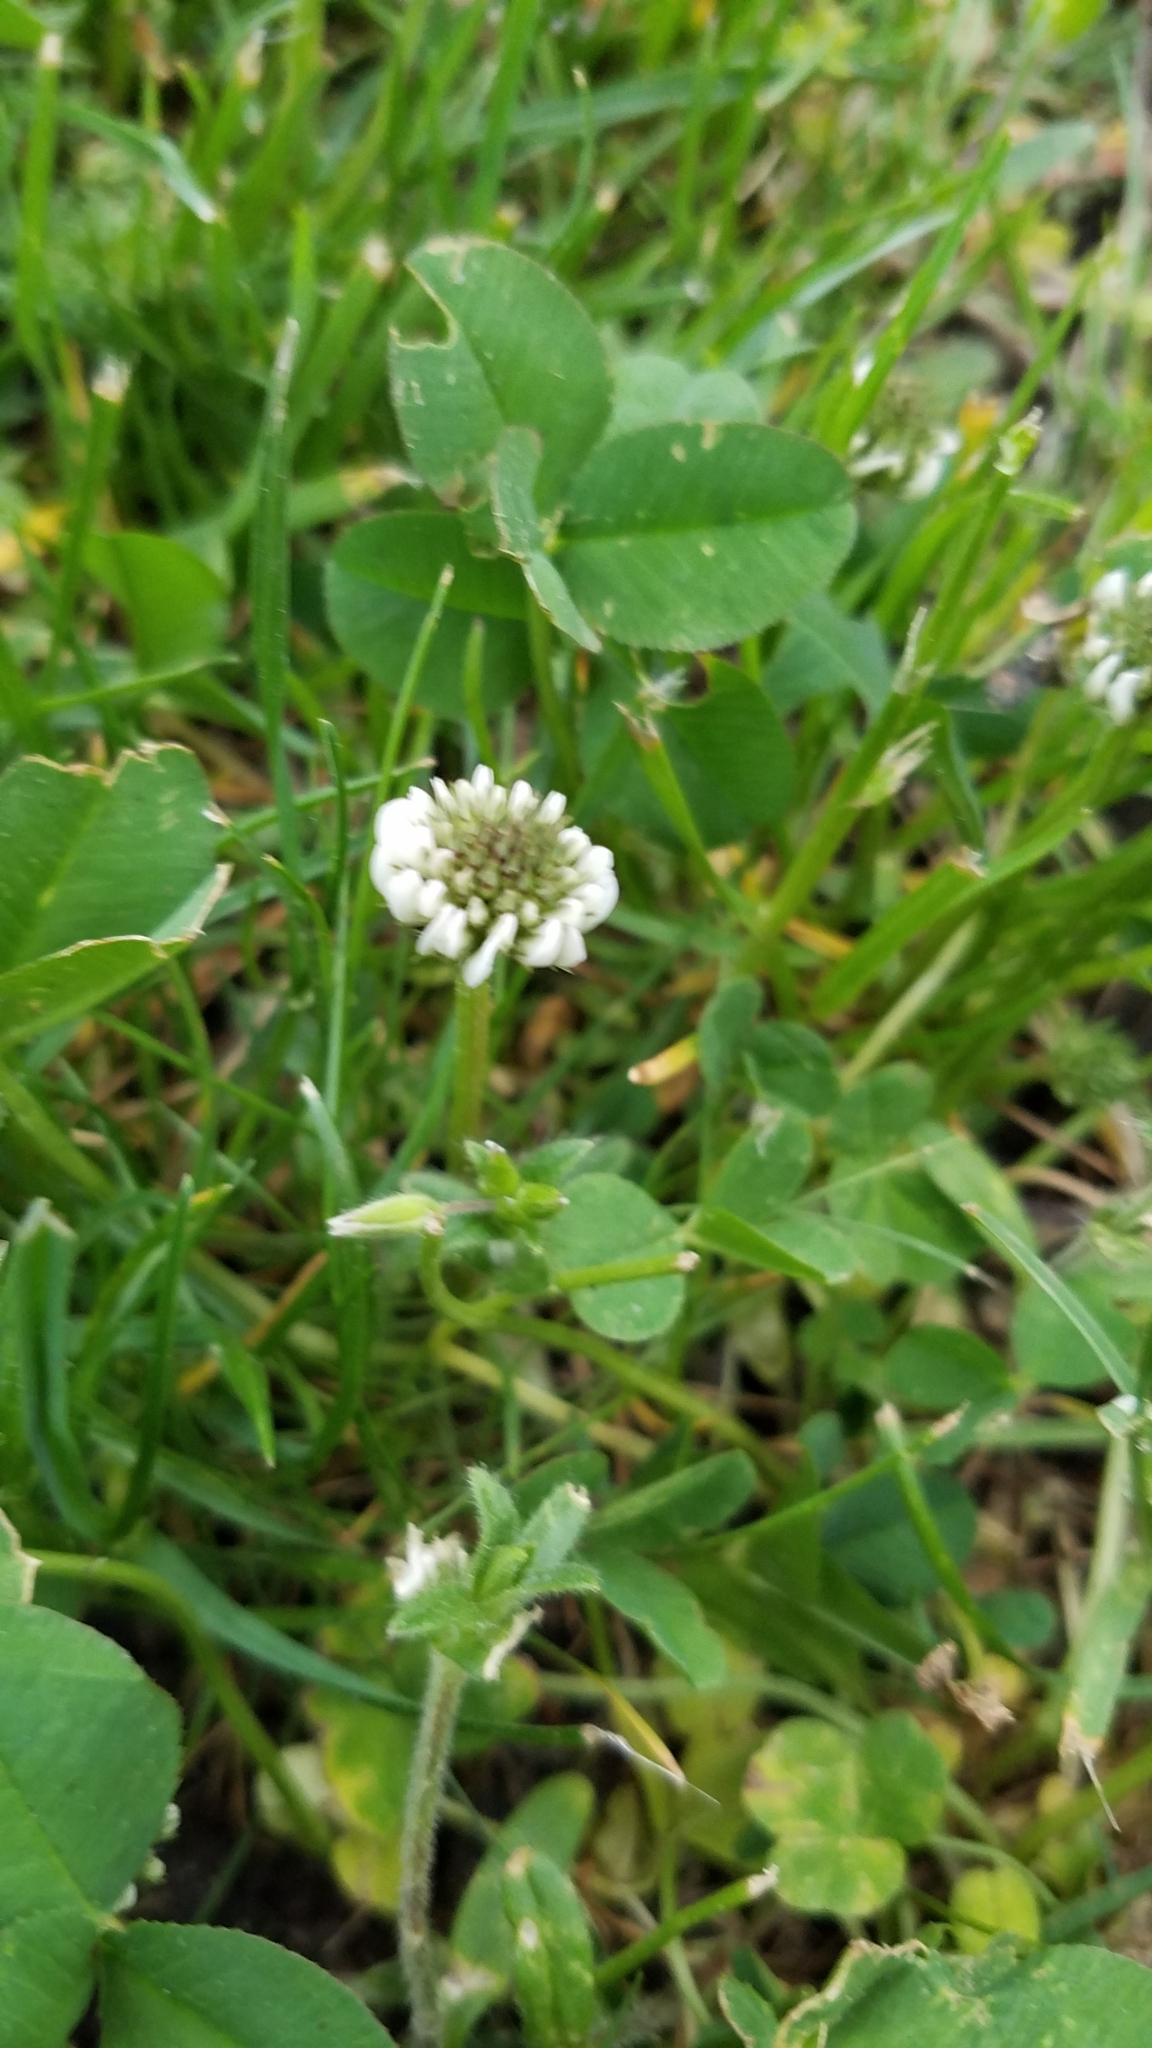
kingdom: Plantae
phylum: Tracheophyta
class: Magnoliopsida
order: Fabales
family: Fabaceae
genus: Trifolium
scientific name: Trifolium repens
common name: White clover
